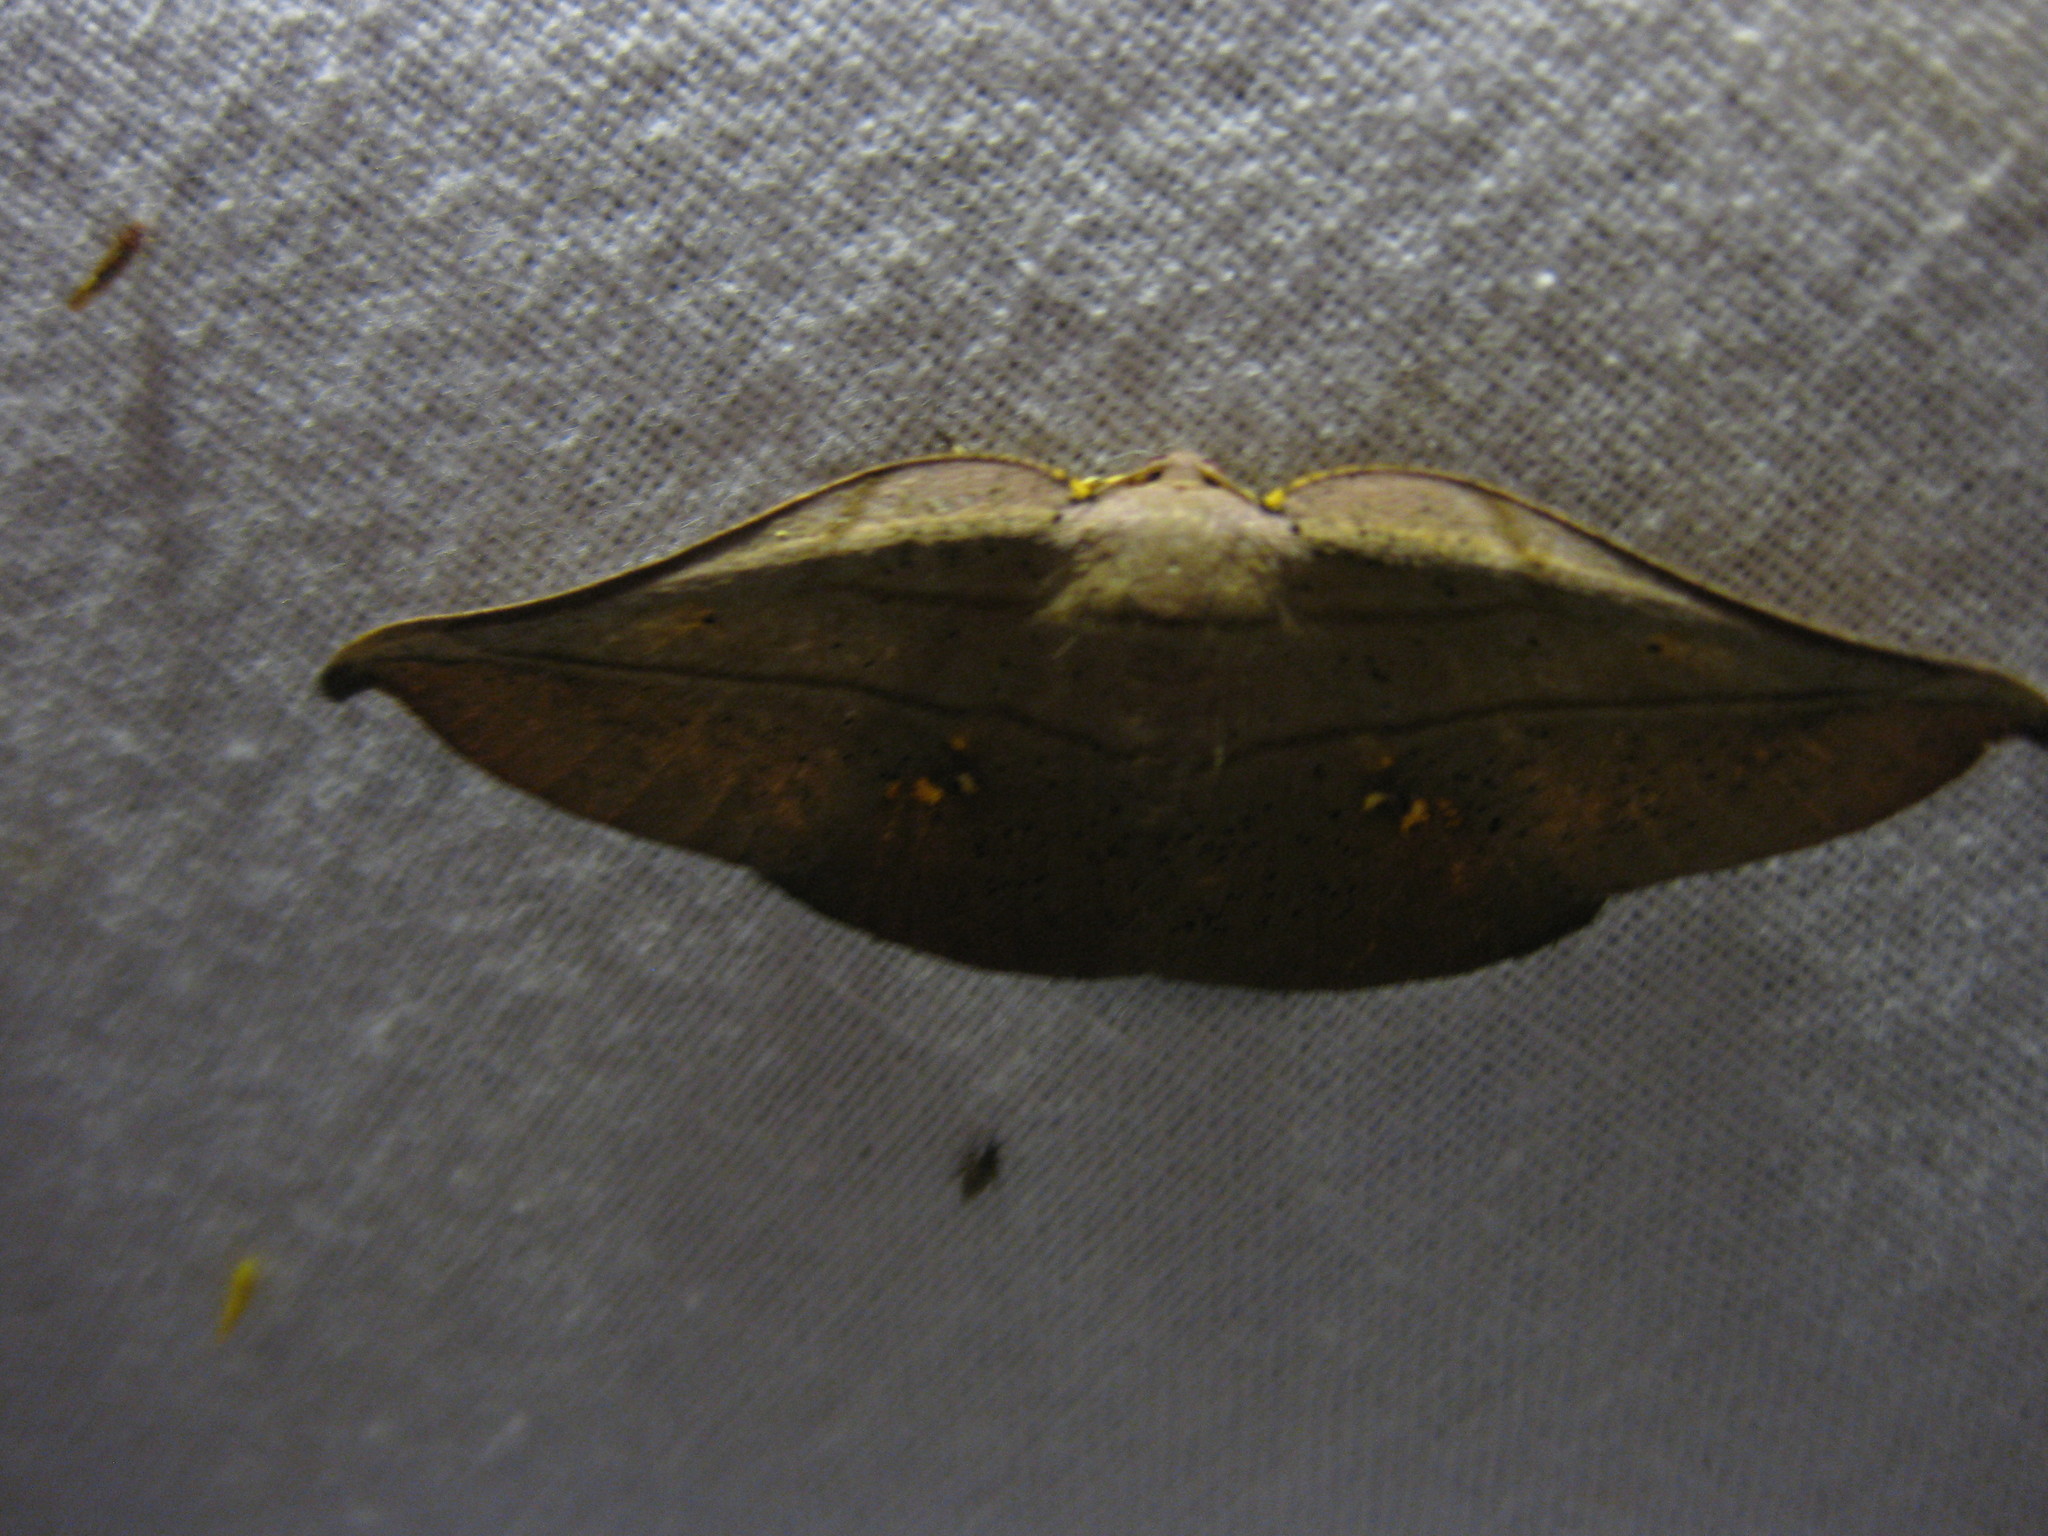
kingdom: Animalia
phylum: Arthropoda
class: Insecta
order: Lepidoptera
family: Geometridae
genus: Xenomusa
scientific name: Xenomusa metallica
